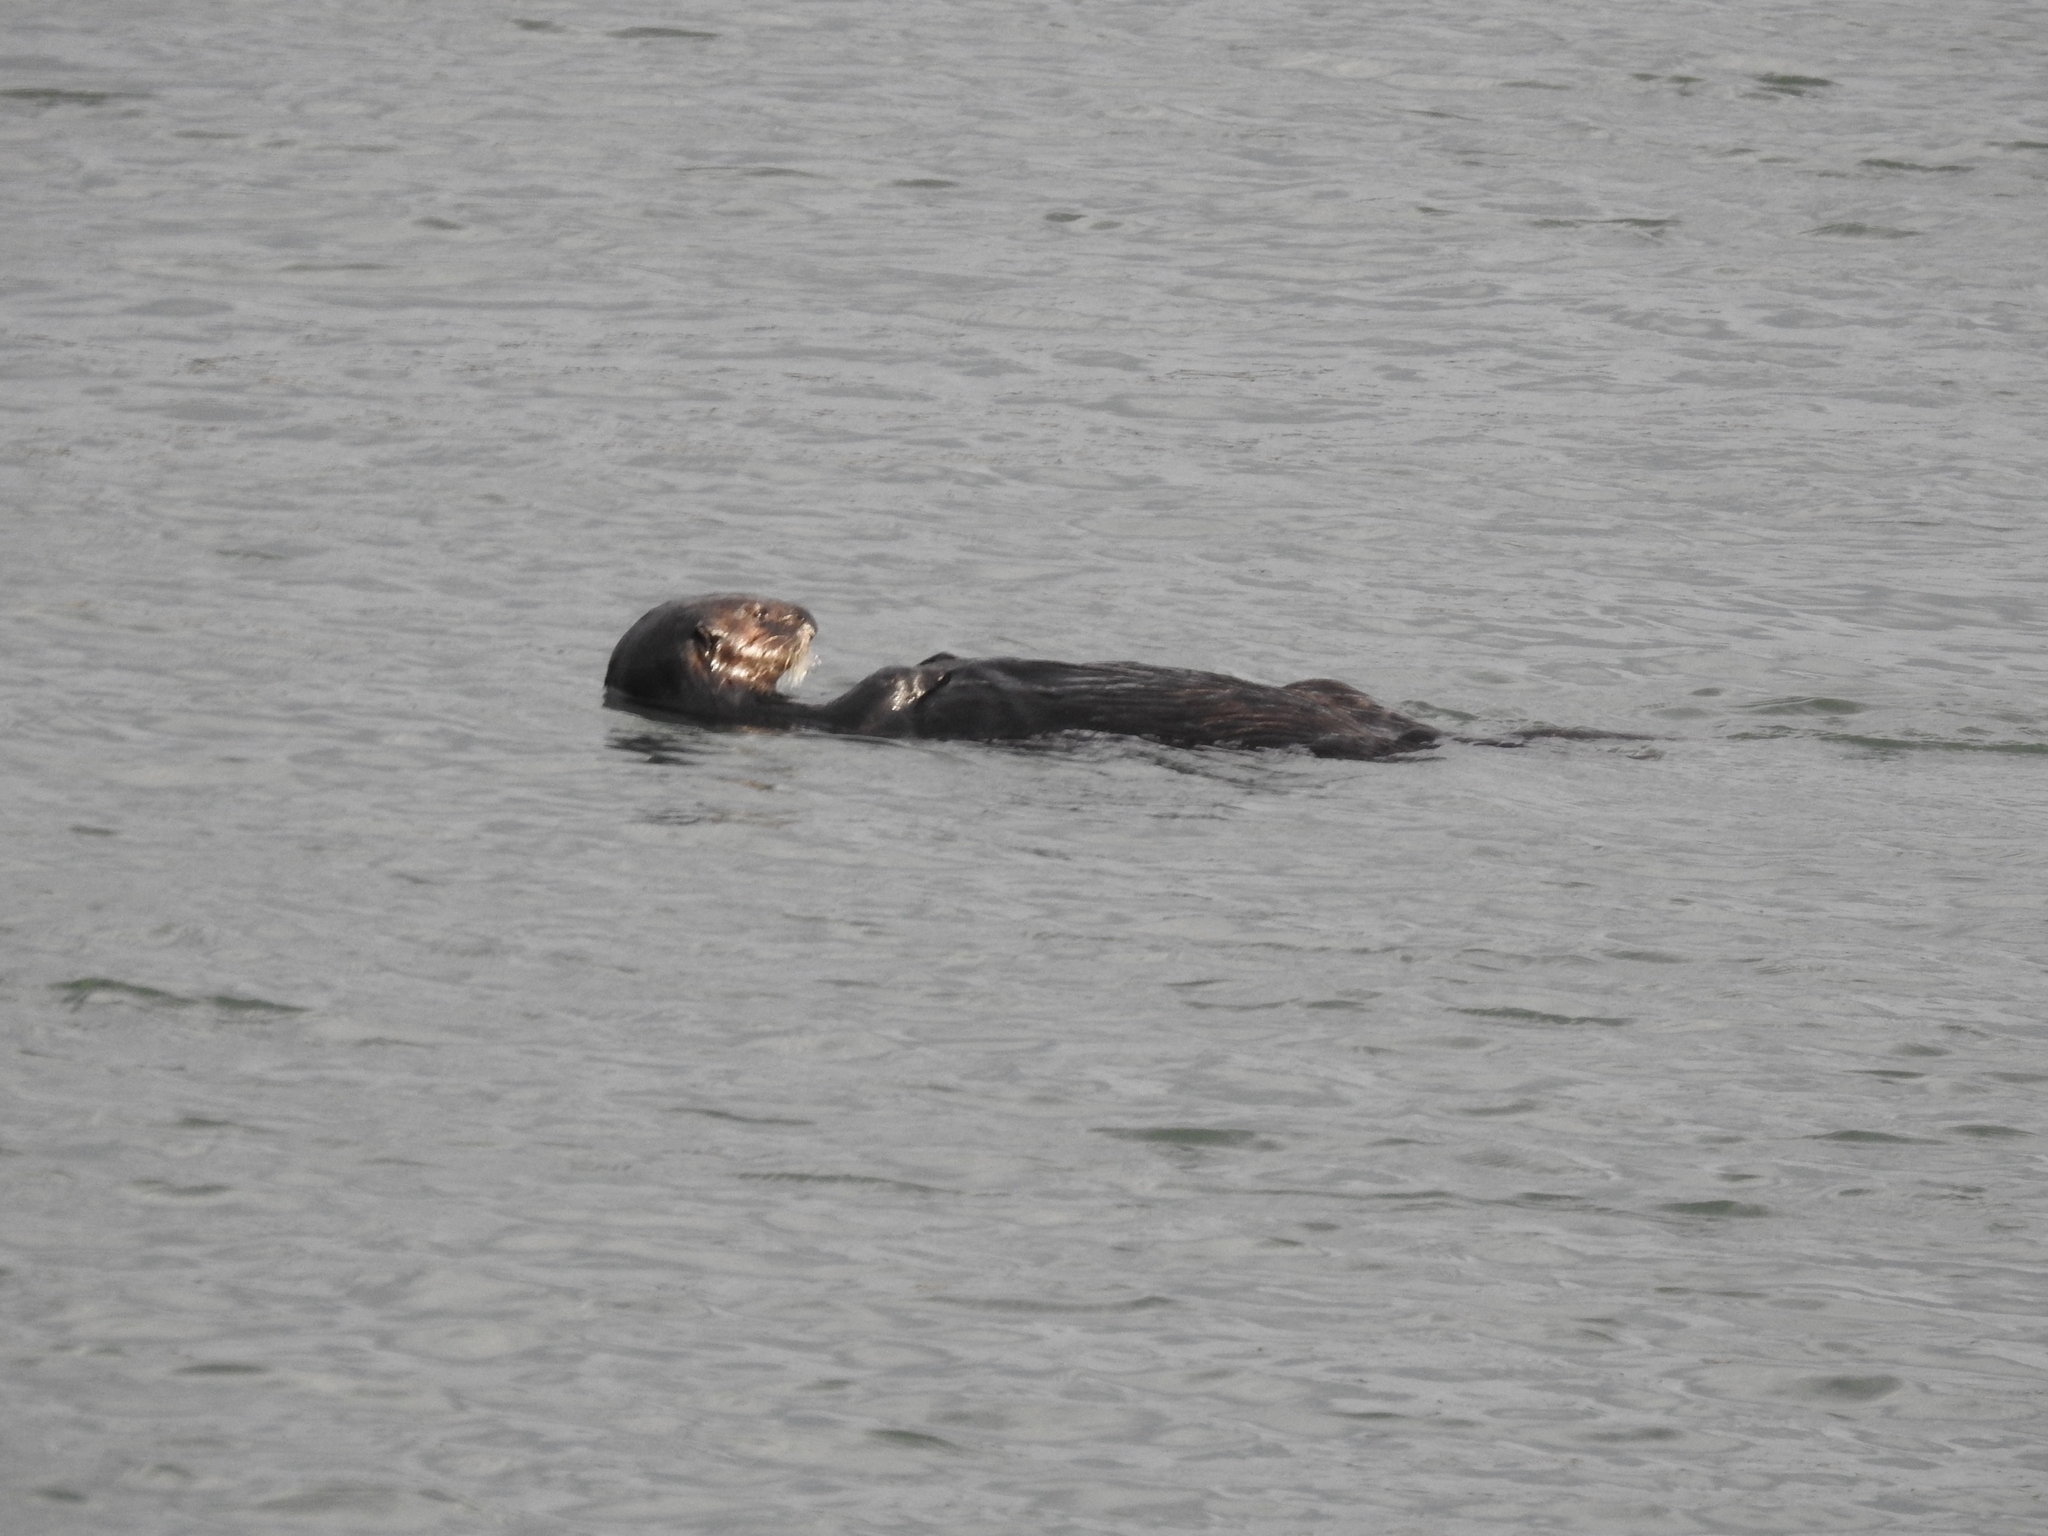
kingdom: Animalia
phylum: Chordata
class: Mammalia
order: Carnivora
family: Mustelidae
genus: Enhydra
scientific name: Enhydra lutris
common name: Sea otter
